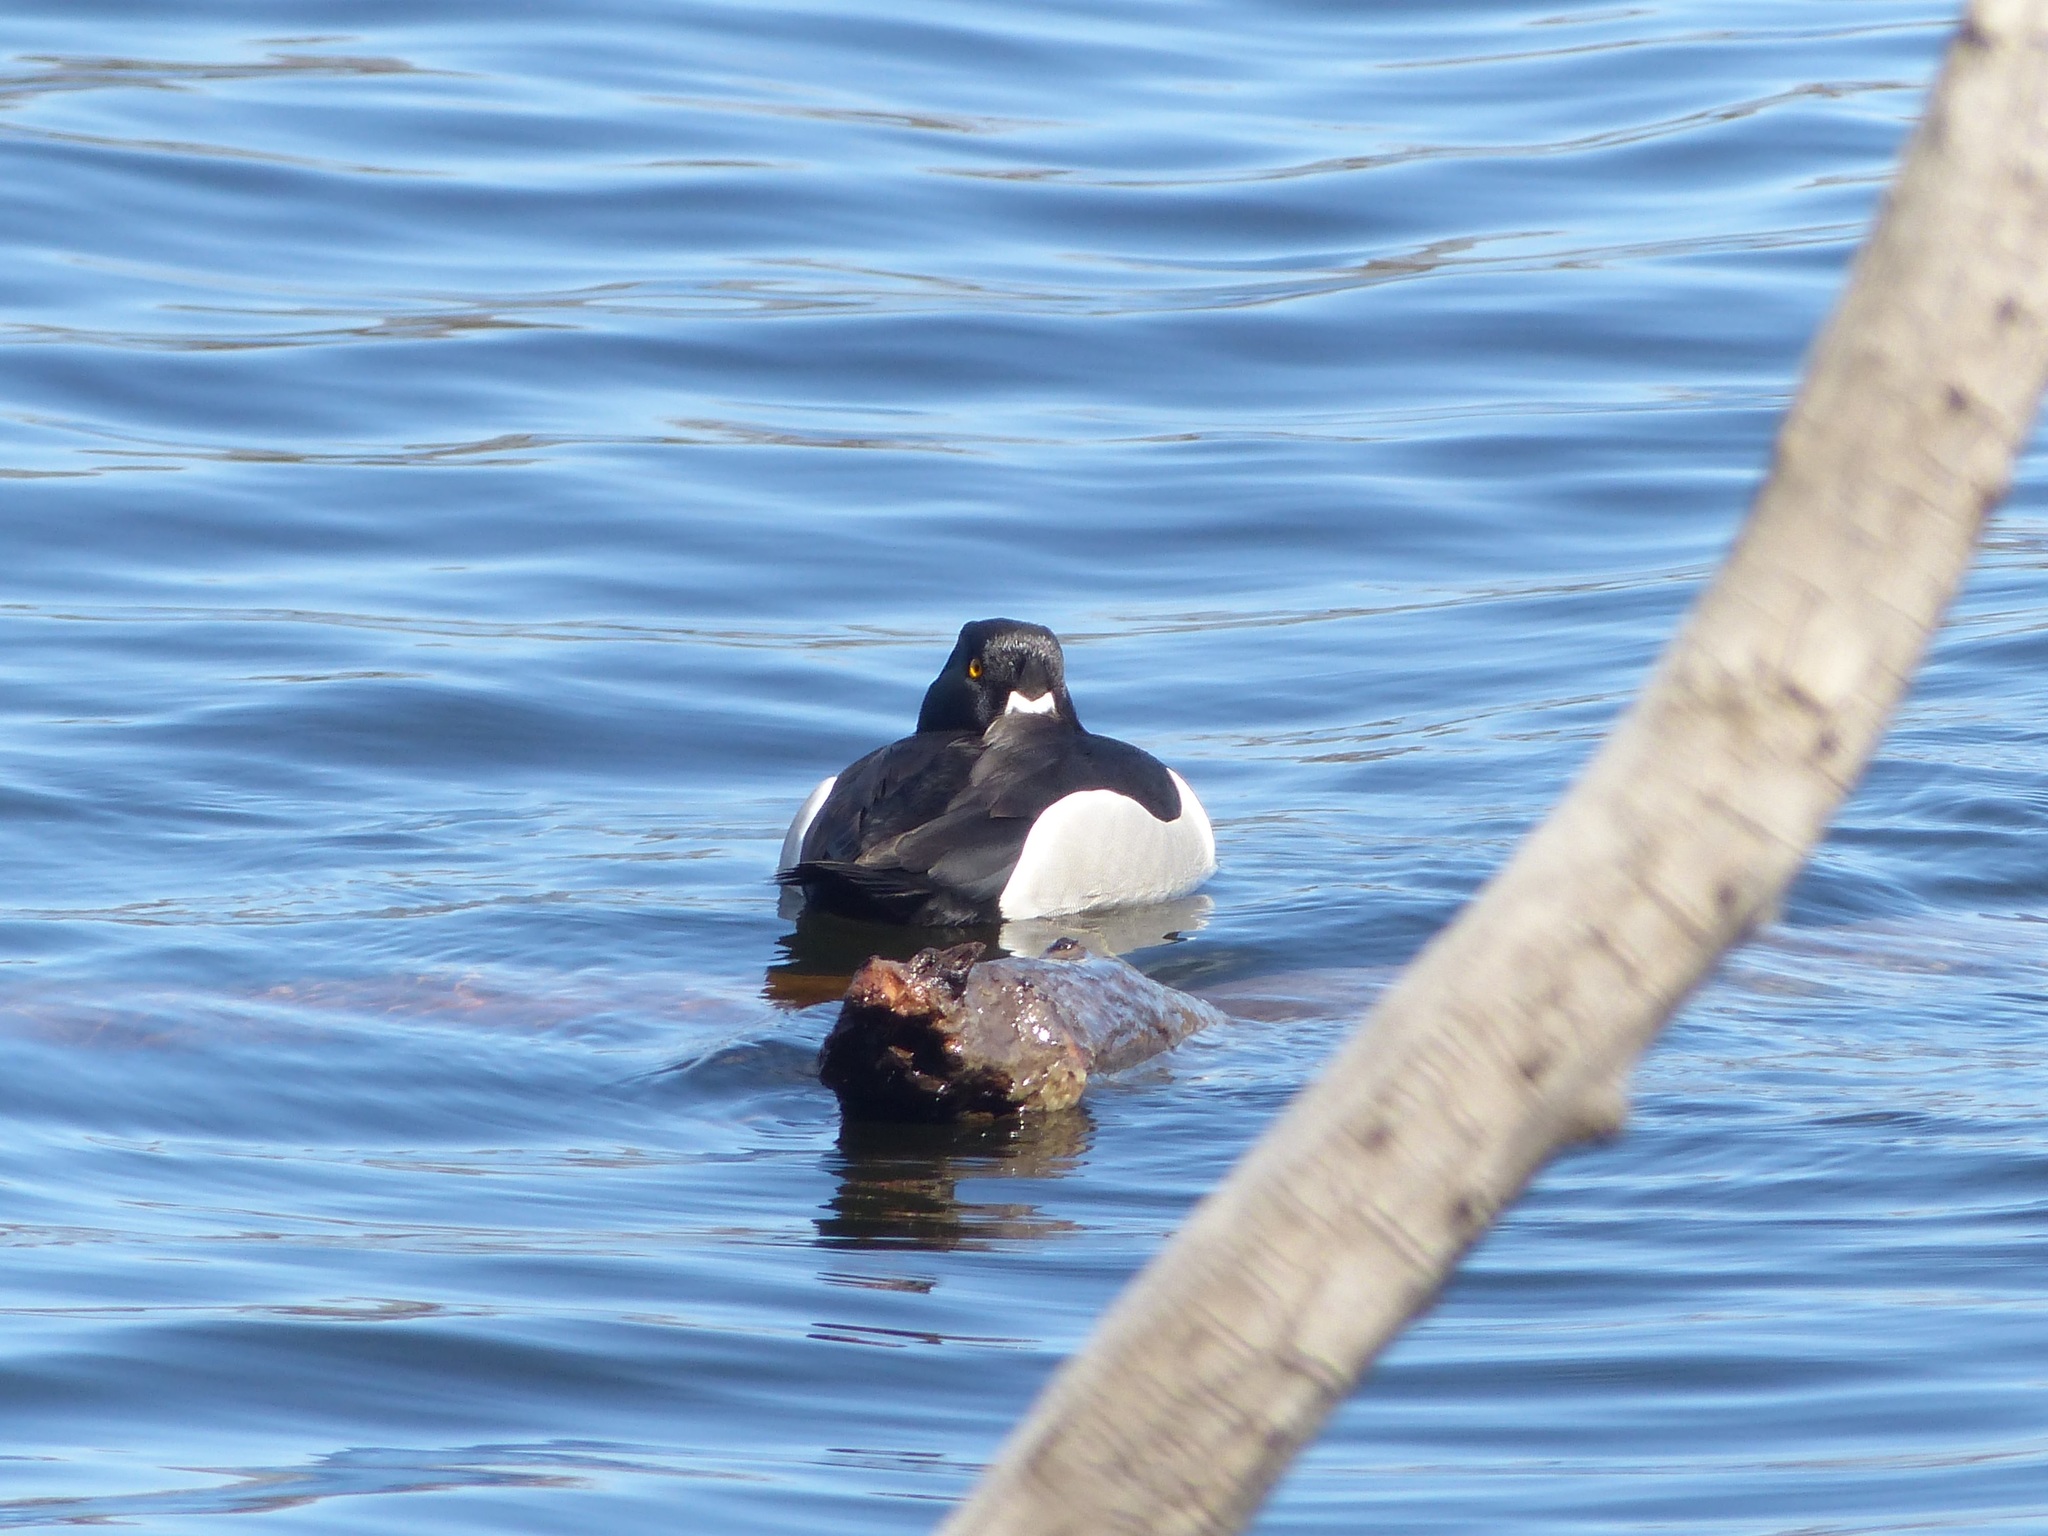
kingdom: Animalia
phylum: Chordata
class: Aves
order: Anseriformes
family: Anatidae
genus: Aythya
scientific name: Aythya collaris
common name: Ring-necked duck
